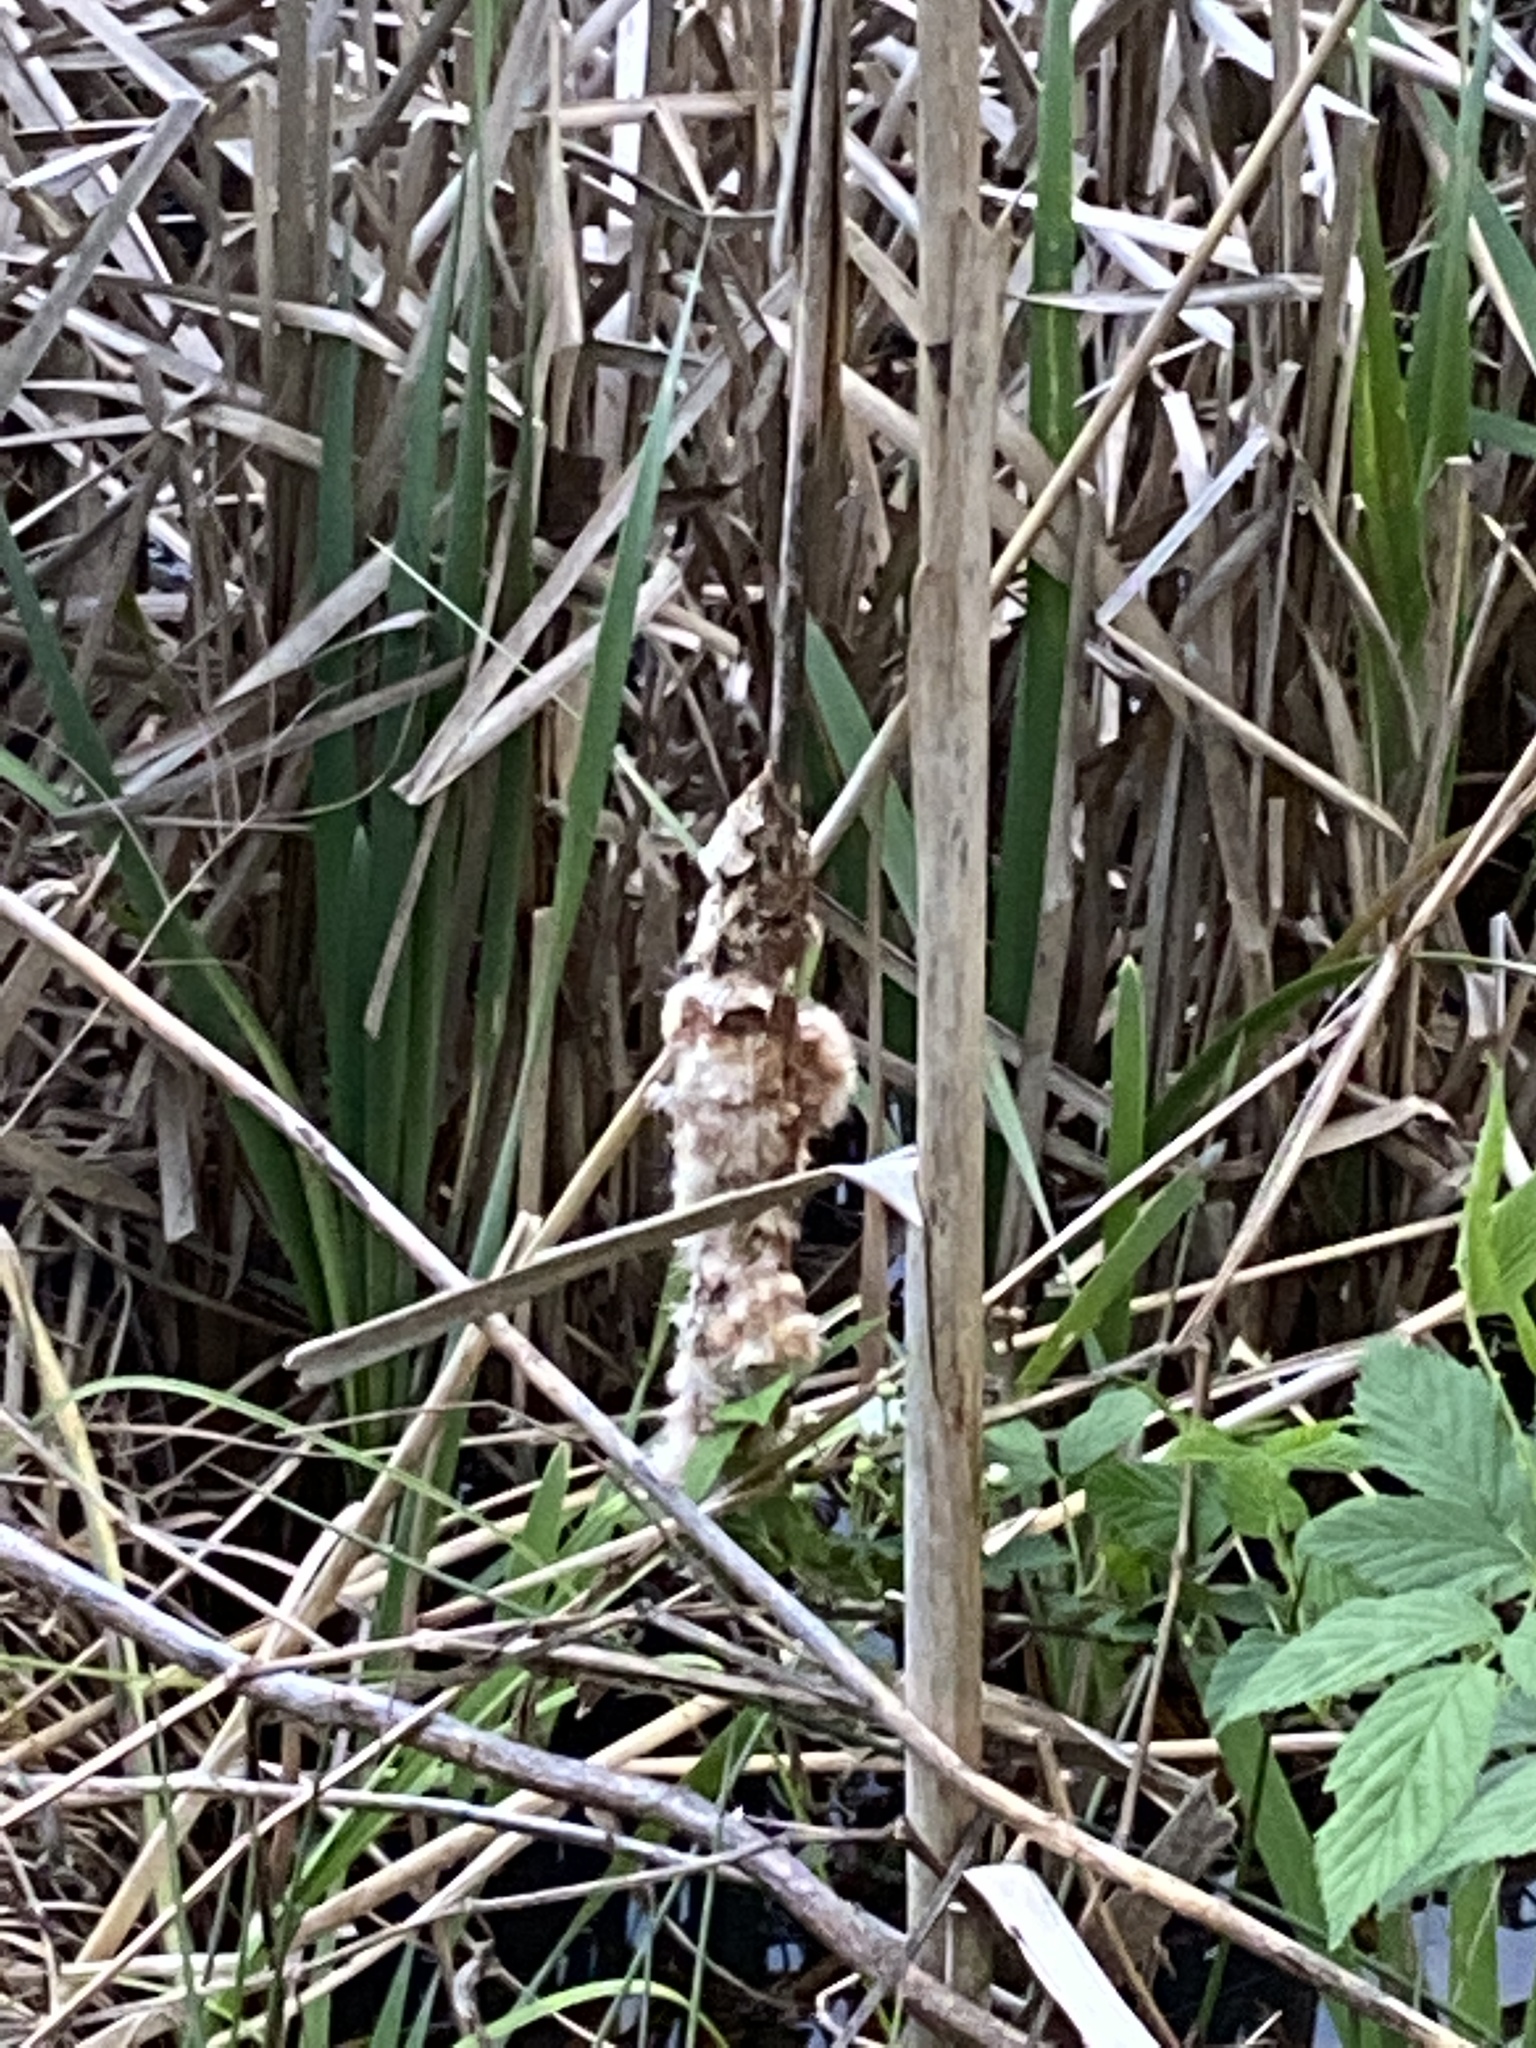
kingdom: Plantae
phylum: Tracheophyta
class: Liliopsida
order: Poales
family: Typhaceae
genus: Typha
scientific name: Typha latifolia
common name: Broadleaf cattail
